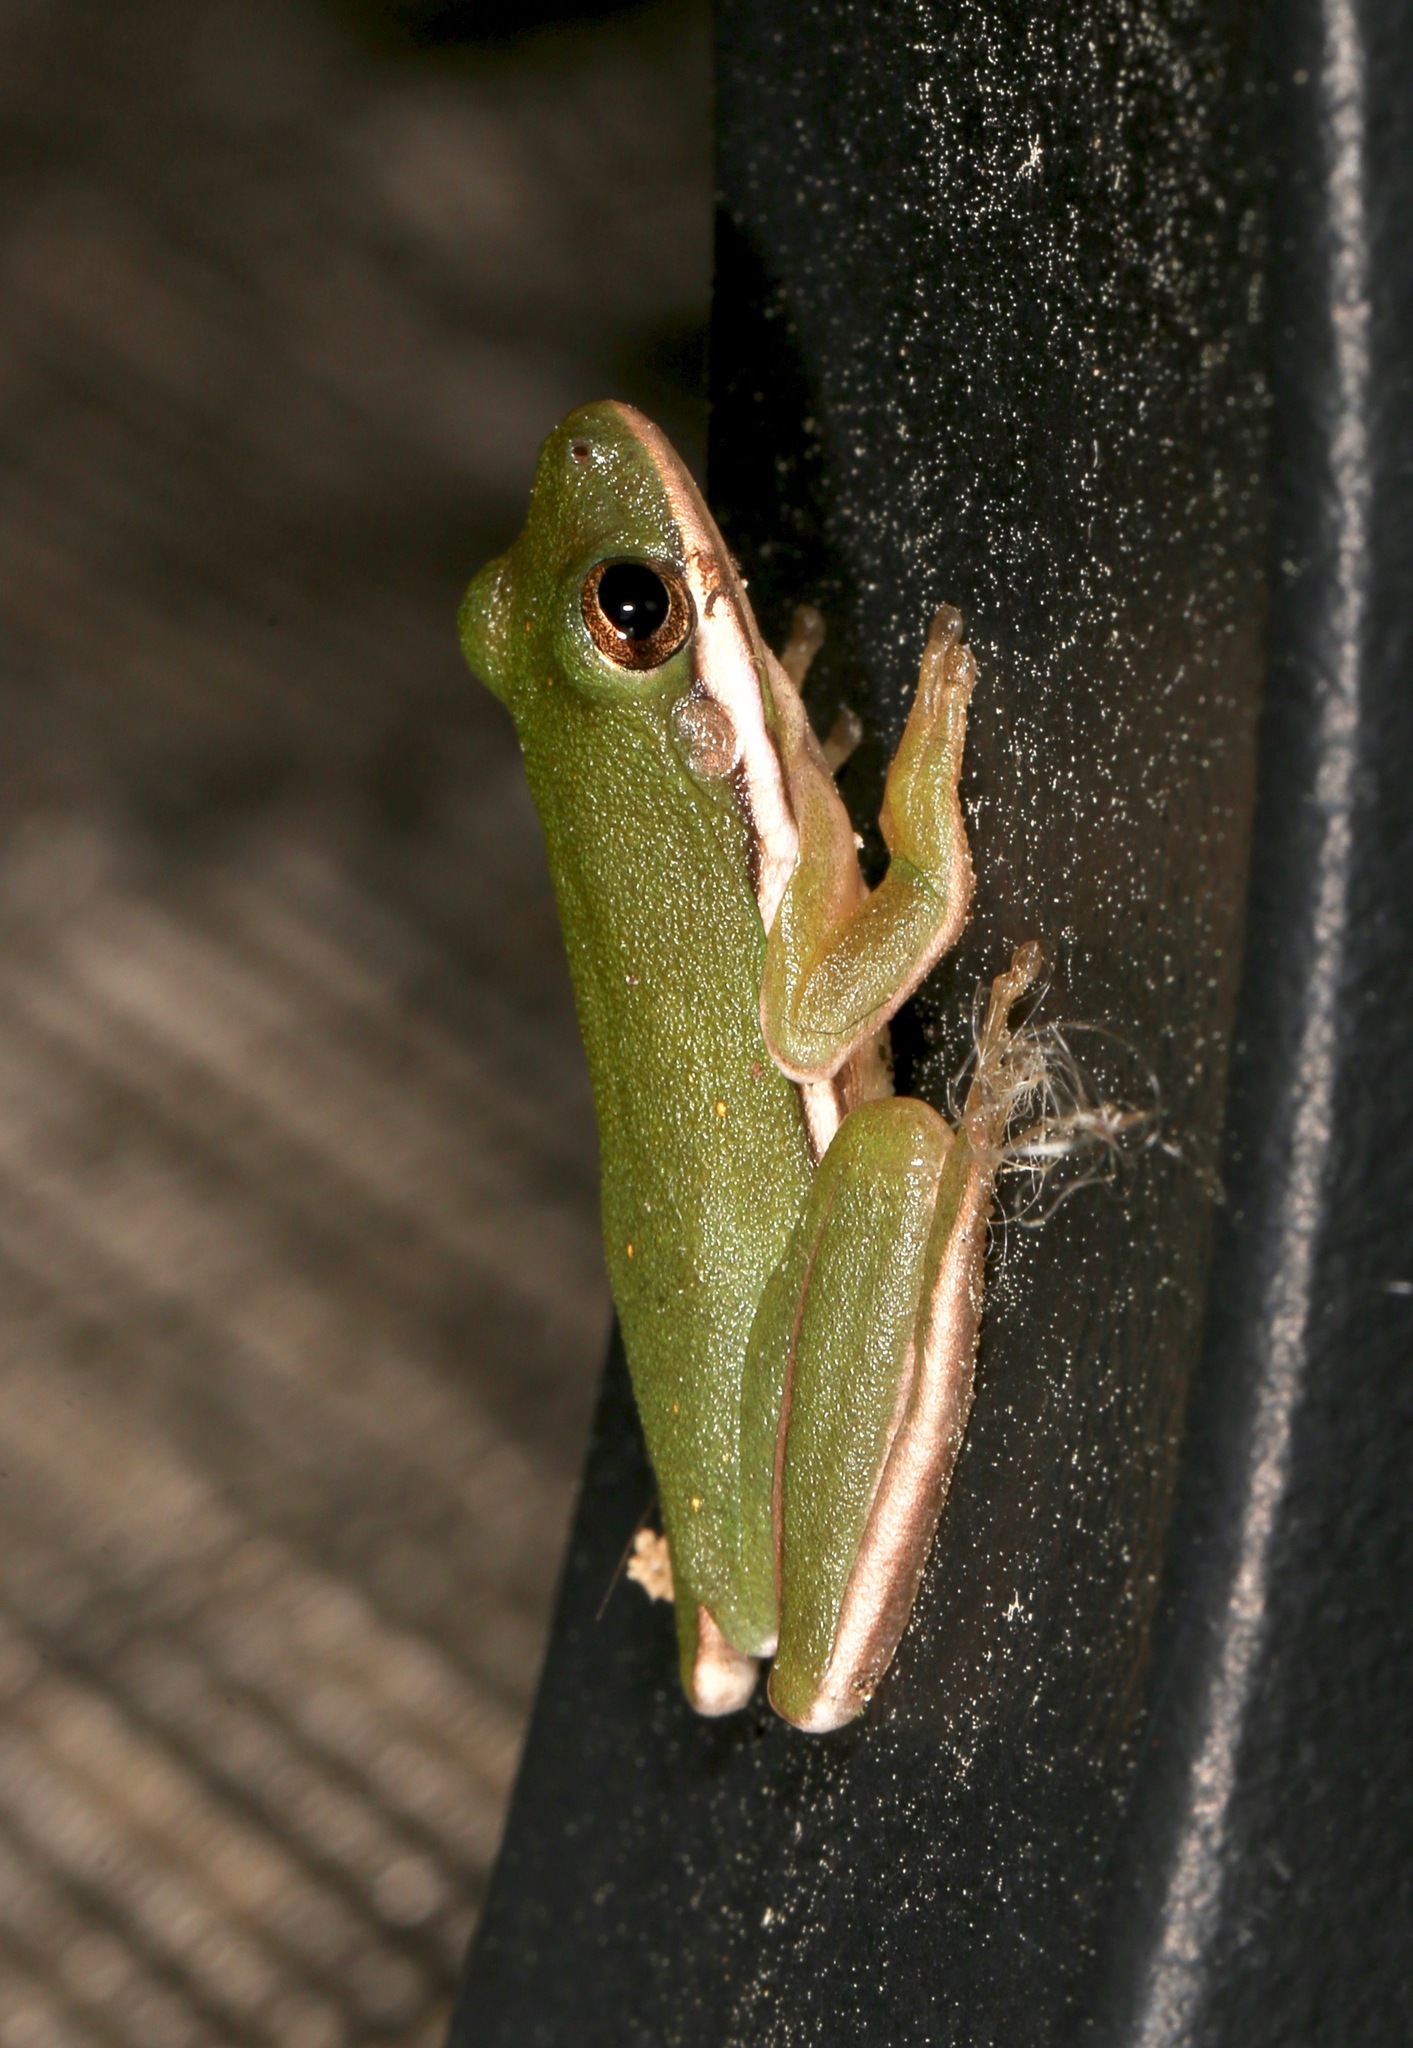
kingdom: Animalia
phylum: Chordata
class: Amphibia
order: Anura
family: Hylidae
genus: Dryophytes
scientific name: Dryophytes cinereus
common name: Green treefrog
